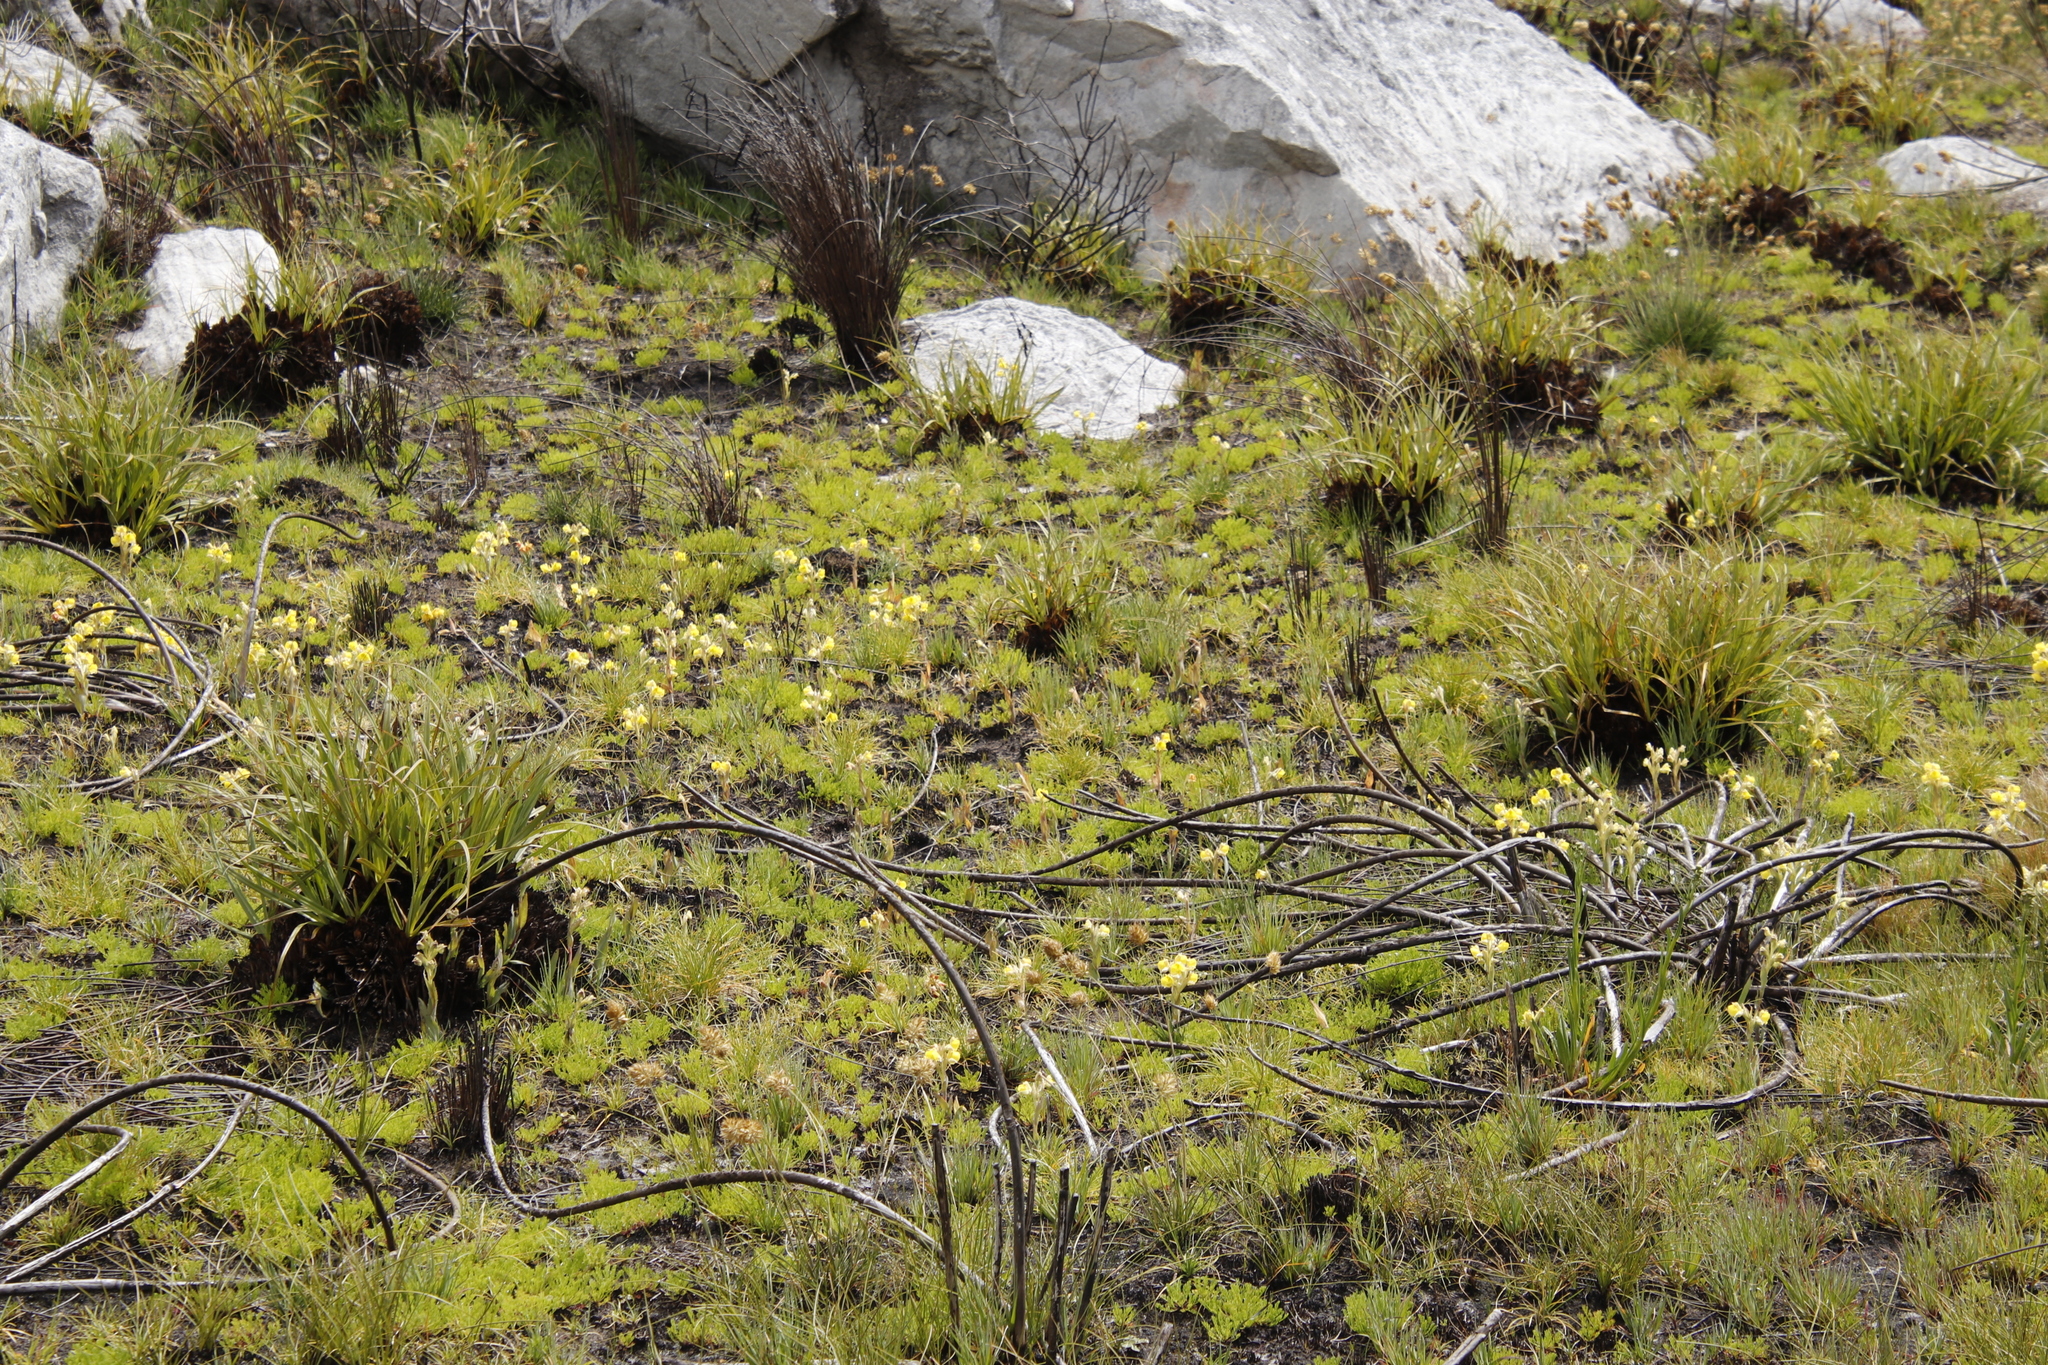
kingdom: Plantae
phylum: Tracheophyta
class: Liliopsida
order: Asparagales
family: Orchidaceae
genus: Pterygodium
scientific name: Pterygodium acutifolium
